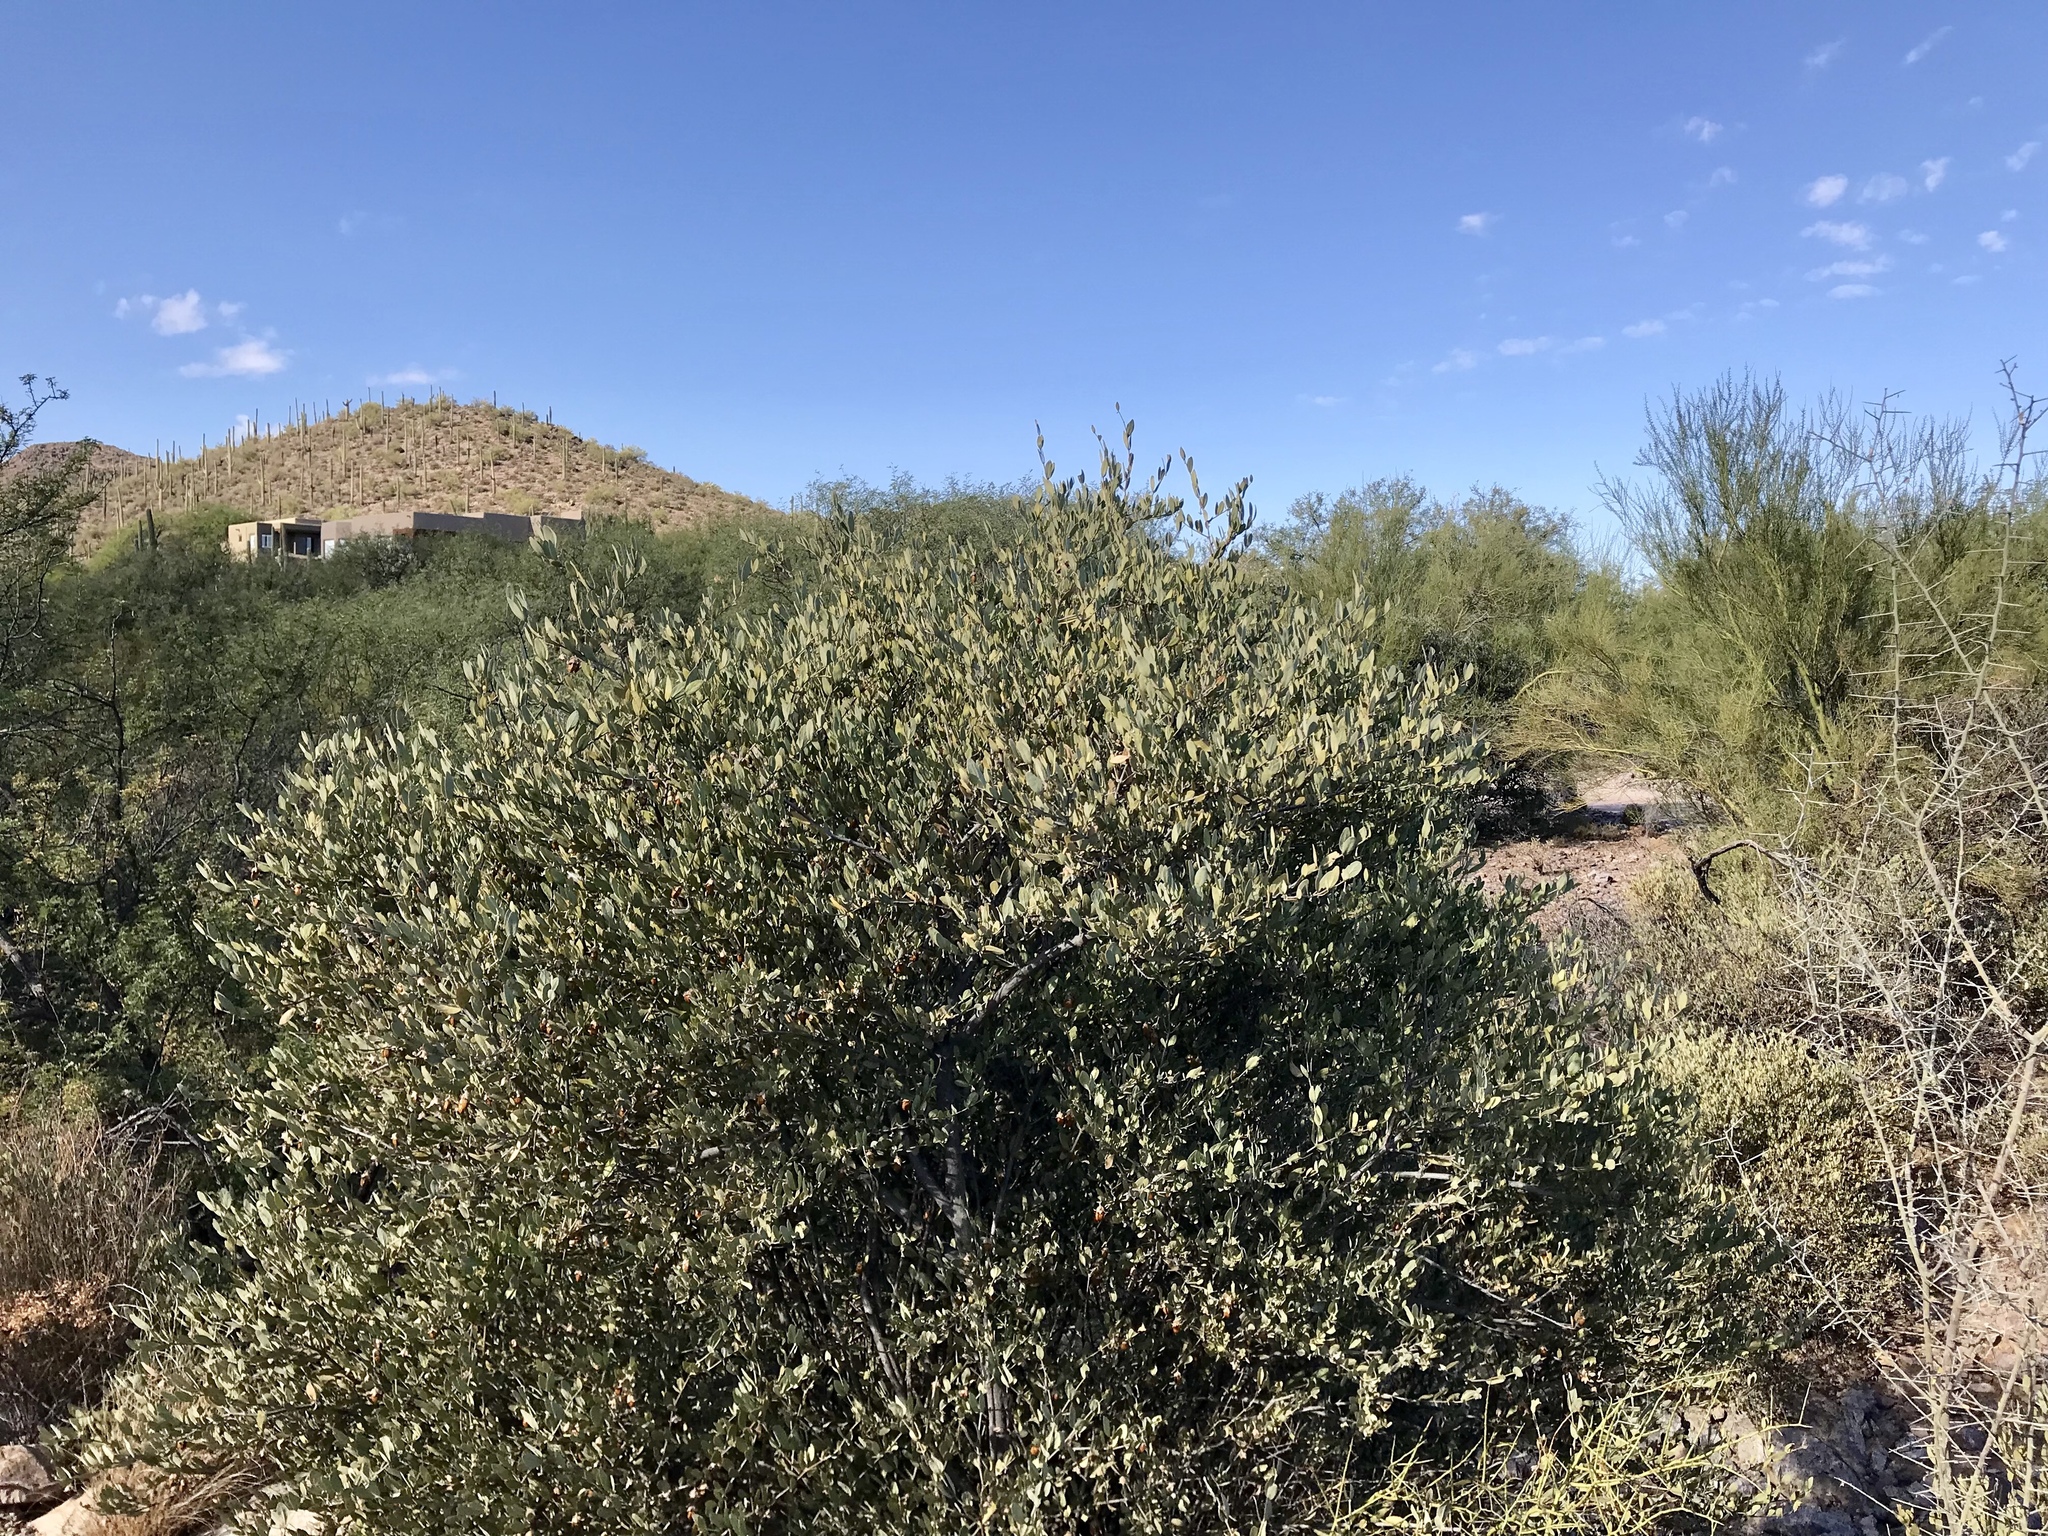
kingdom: Plantae
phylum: Tracheophyta
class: Magnoliopsida
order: Caryophyllales
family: Simmondsiaceae
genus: Simmondsia
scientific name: Simmondsia chinensis
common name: Jojoba
